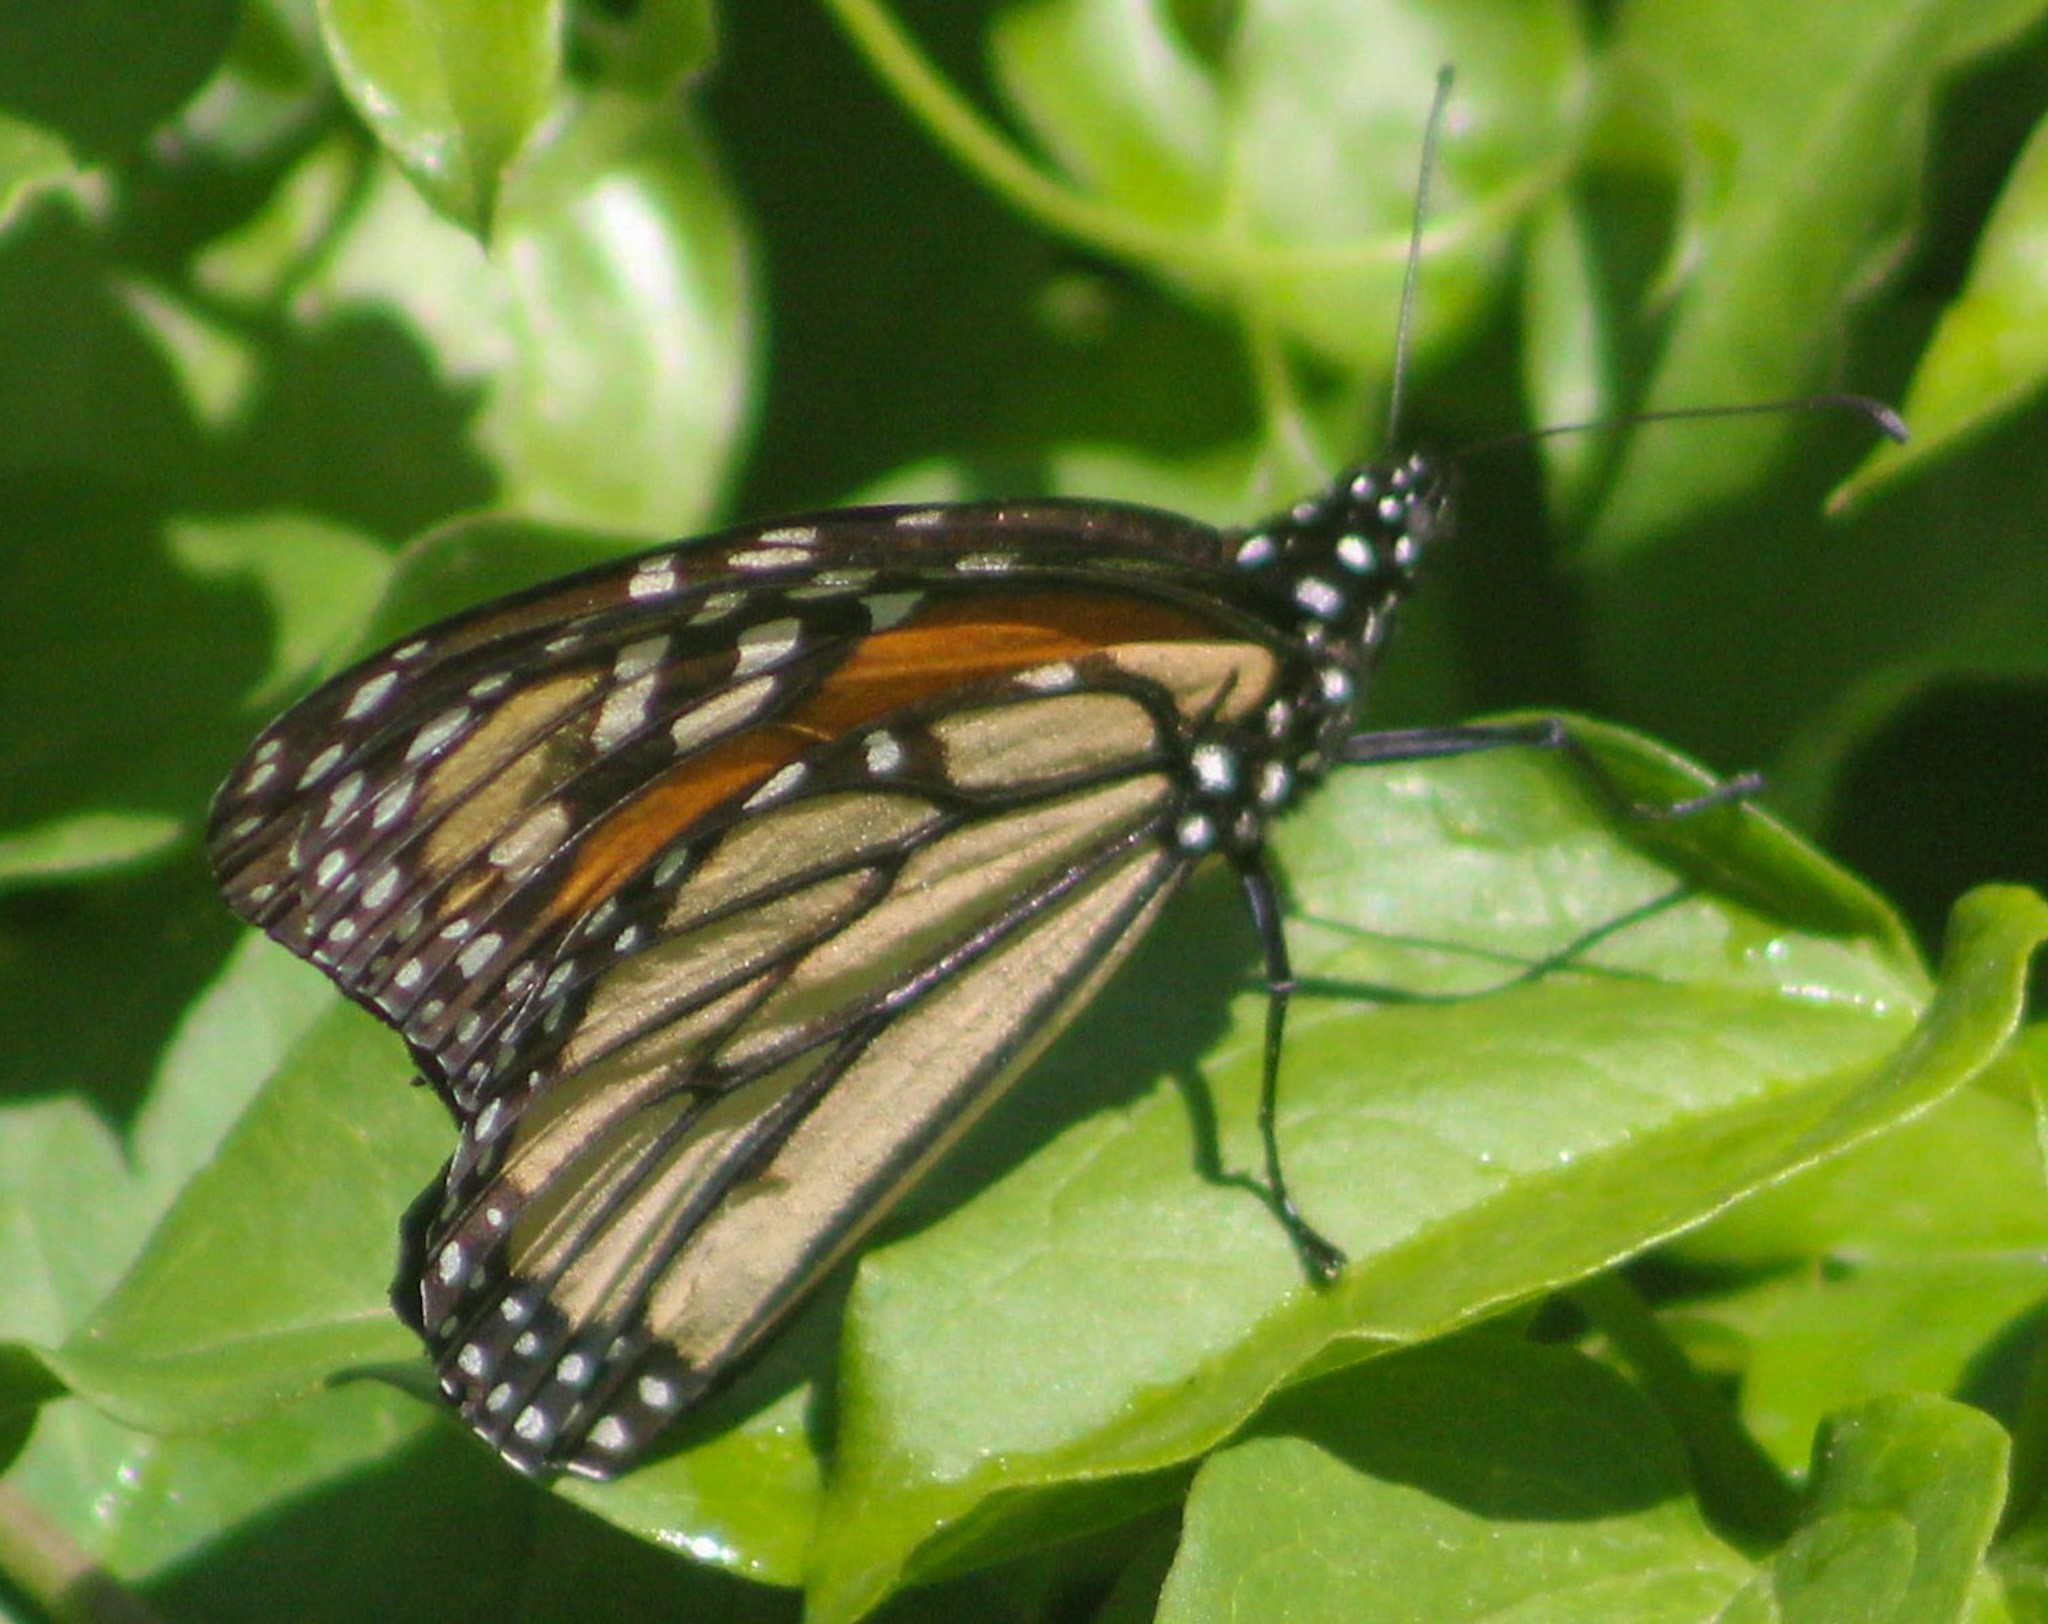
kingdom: Animalia
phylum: Arthropoda
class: Insecta
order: Lepidoptera
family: Nymphalidae
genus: Danaus
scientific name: Danaus plexippus
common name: Monarch
